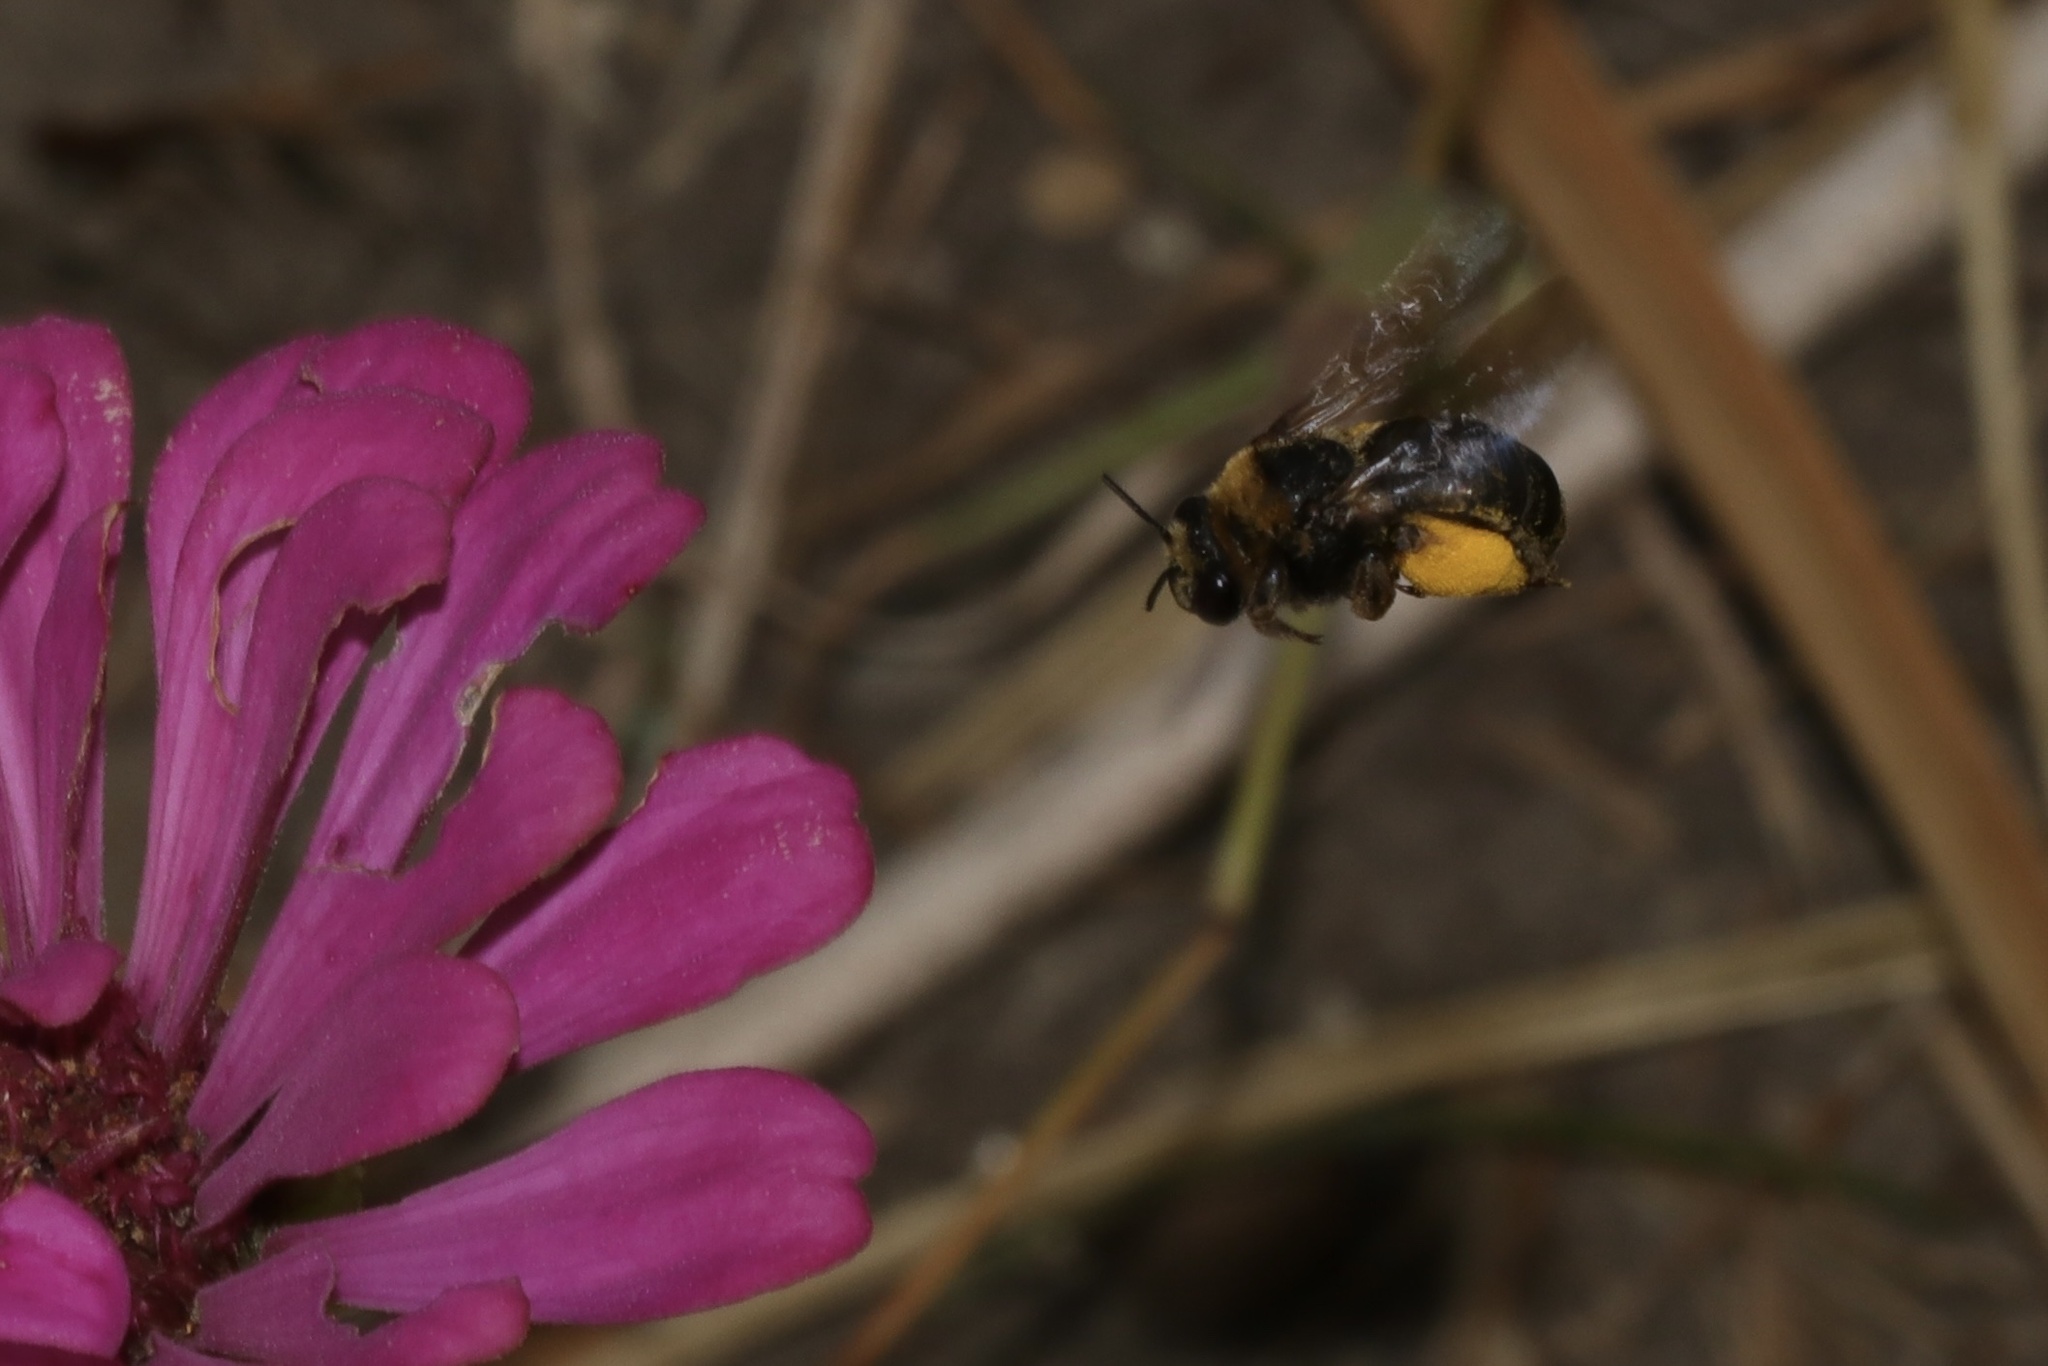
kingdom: Animalia
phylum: Arthropoda
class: Insecta
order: Hymenoptera
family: Apidae
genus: Svastra
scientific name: Svastra obliqua
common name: Oblique longhorn
